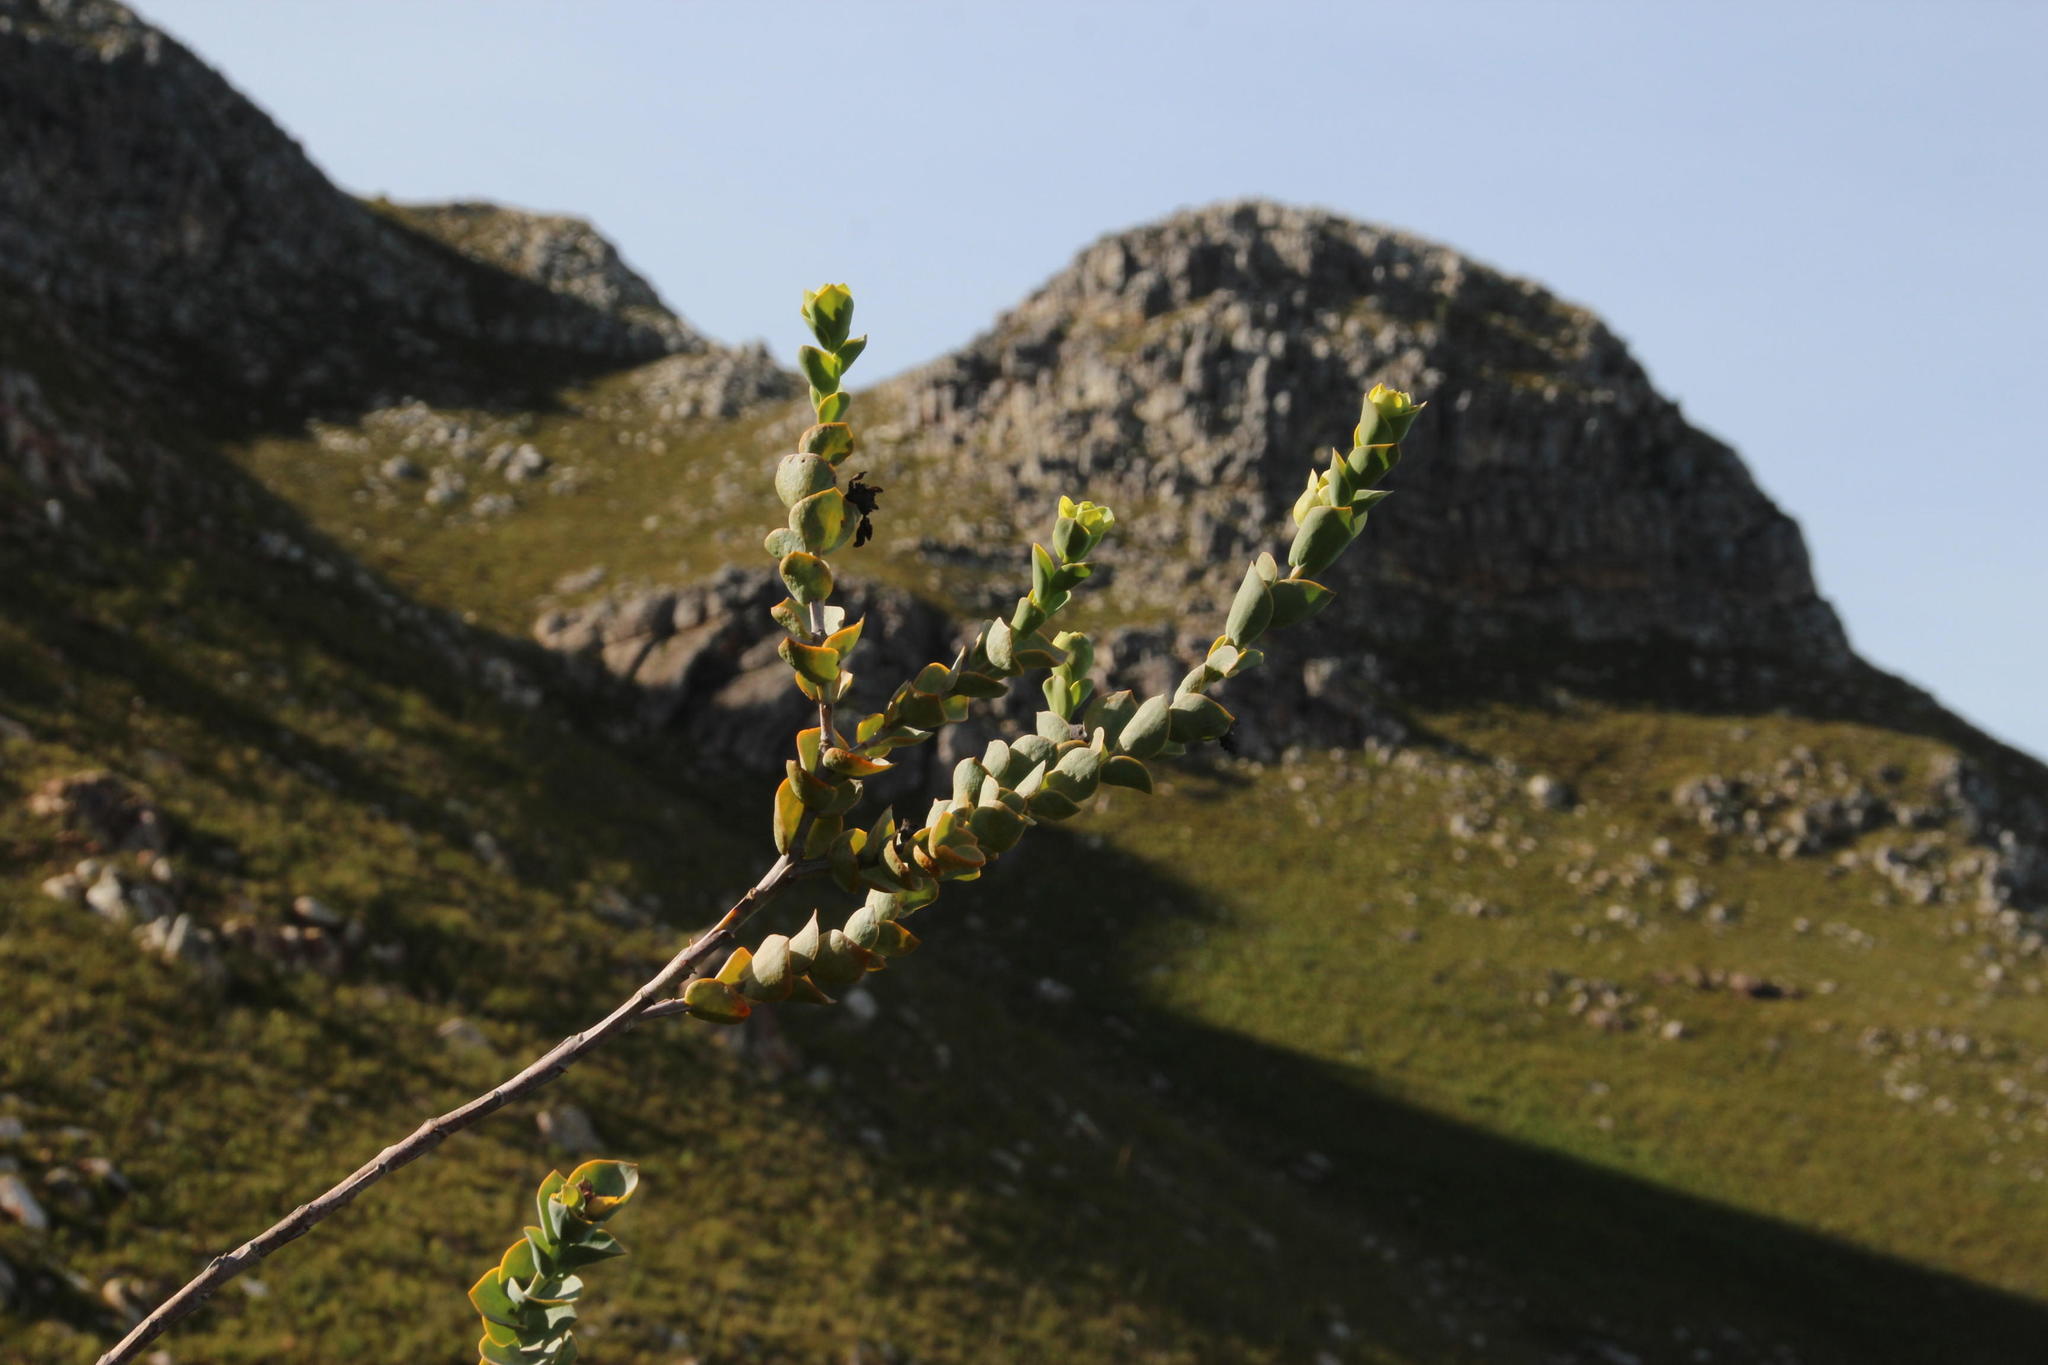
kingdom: Plantae
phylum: Tracheophyta
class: Magnoliopsida
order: Santalales
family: Thesiaceae
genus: Thesium
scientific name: Thesium euphorbioides
